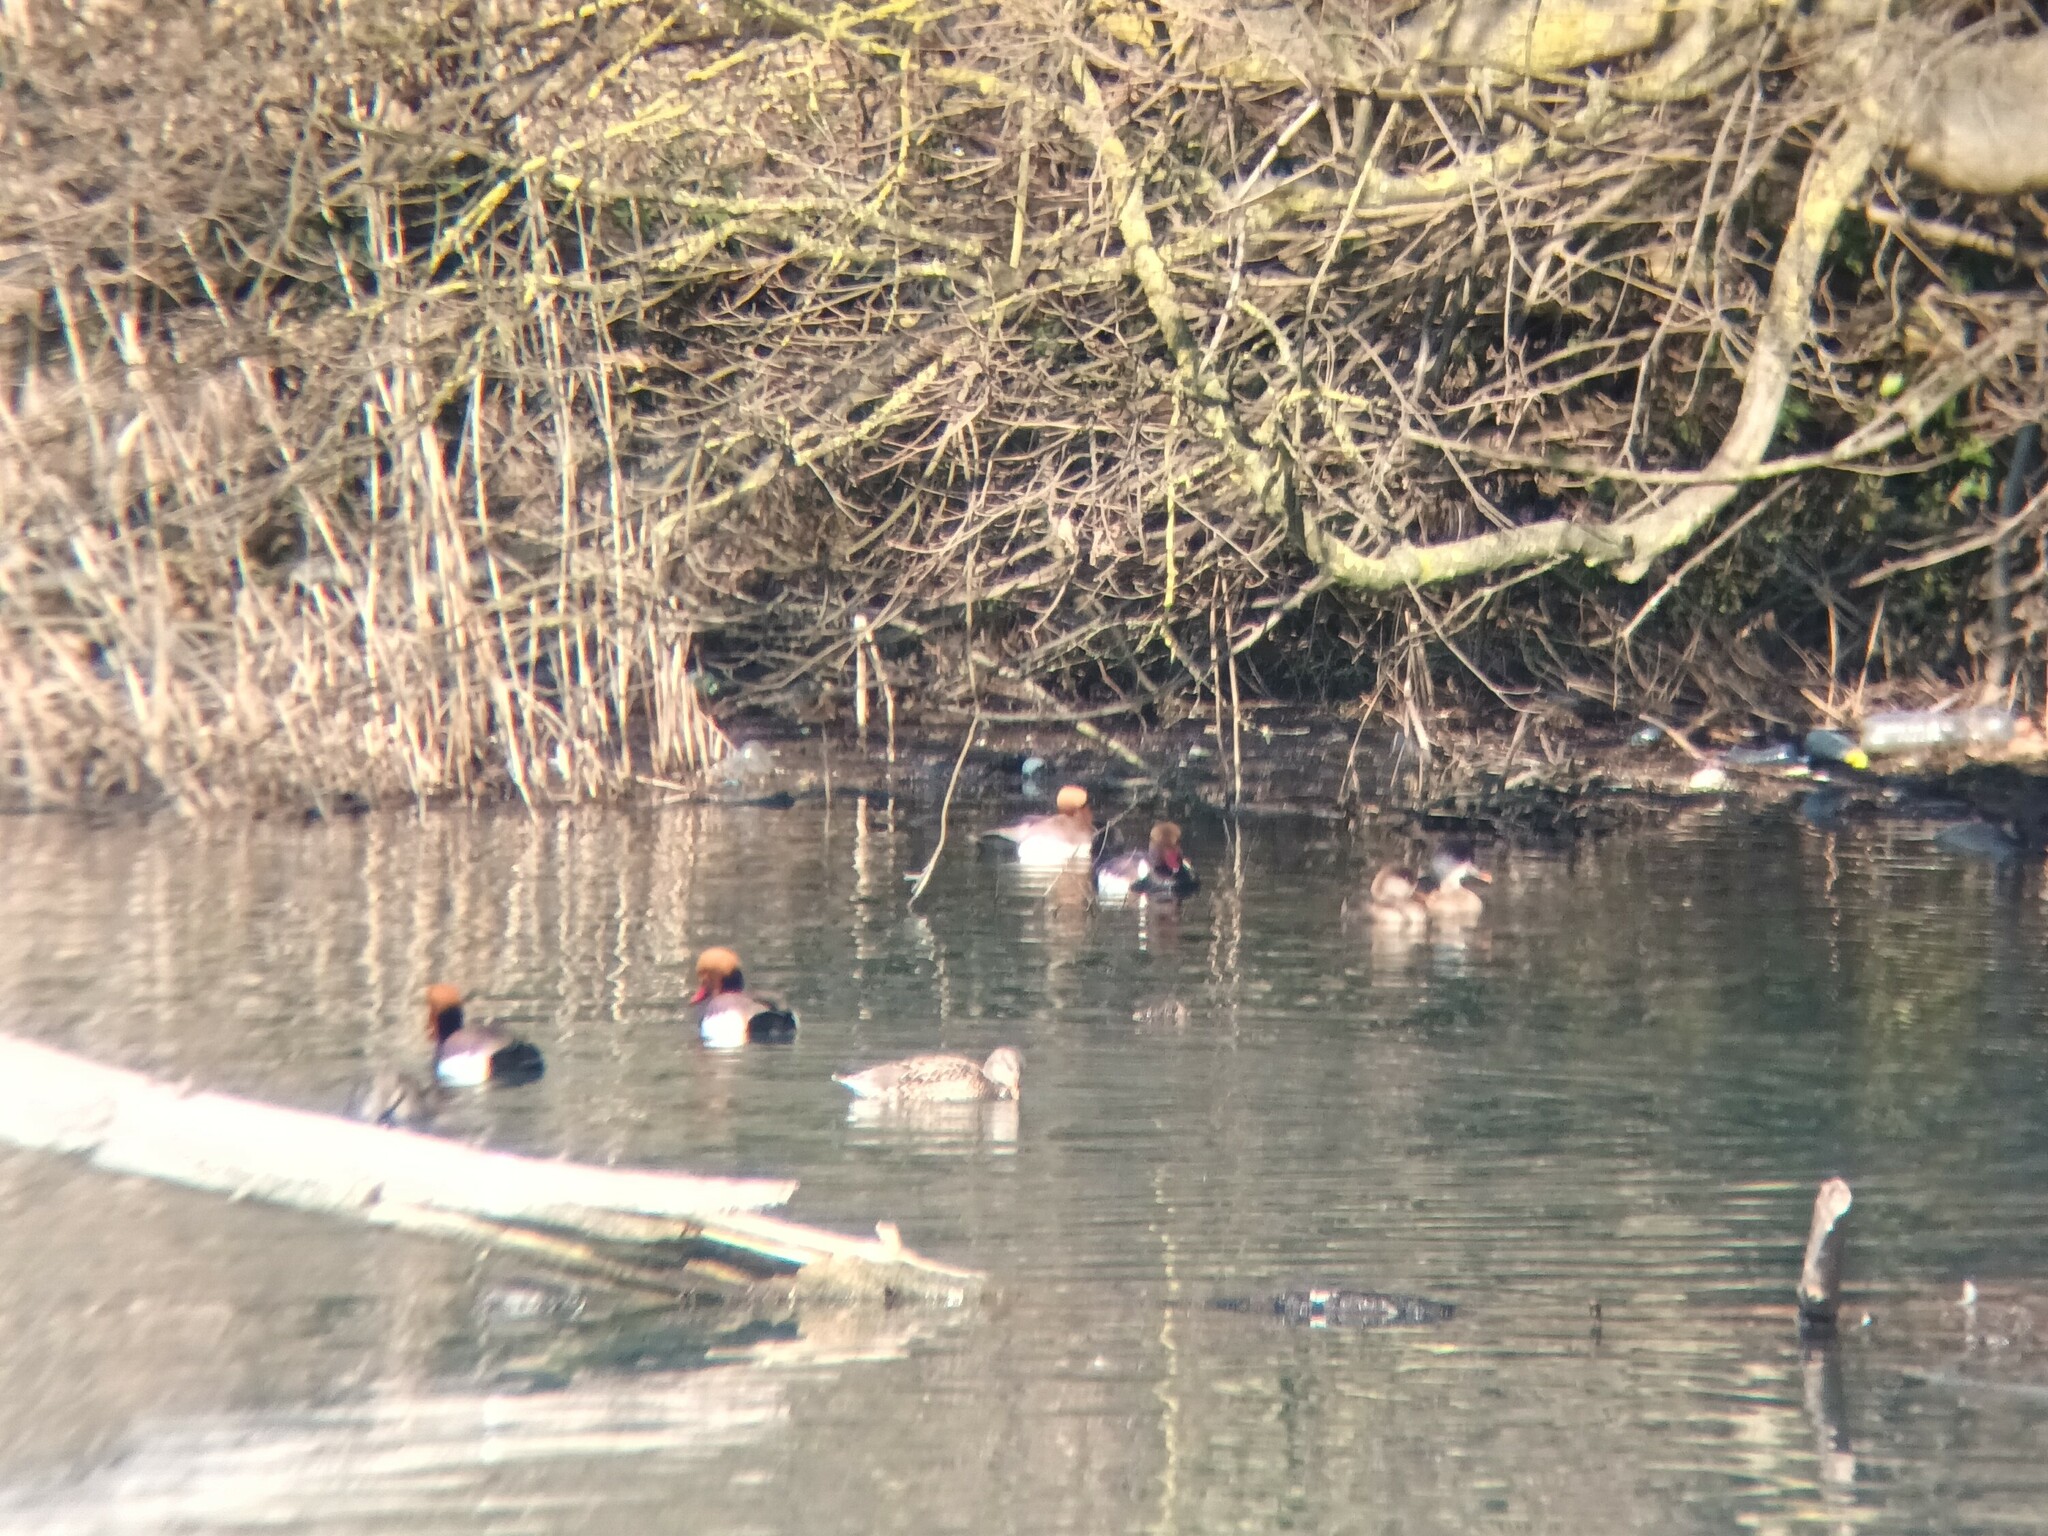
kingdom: Animalia
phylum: Chordata
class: Aves
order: Anseriformes
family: Anatidae
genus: Netta
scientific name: Netta rufina
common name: Red-crested pochard
